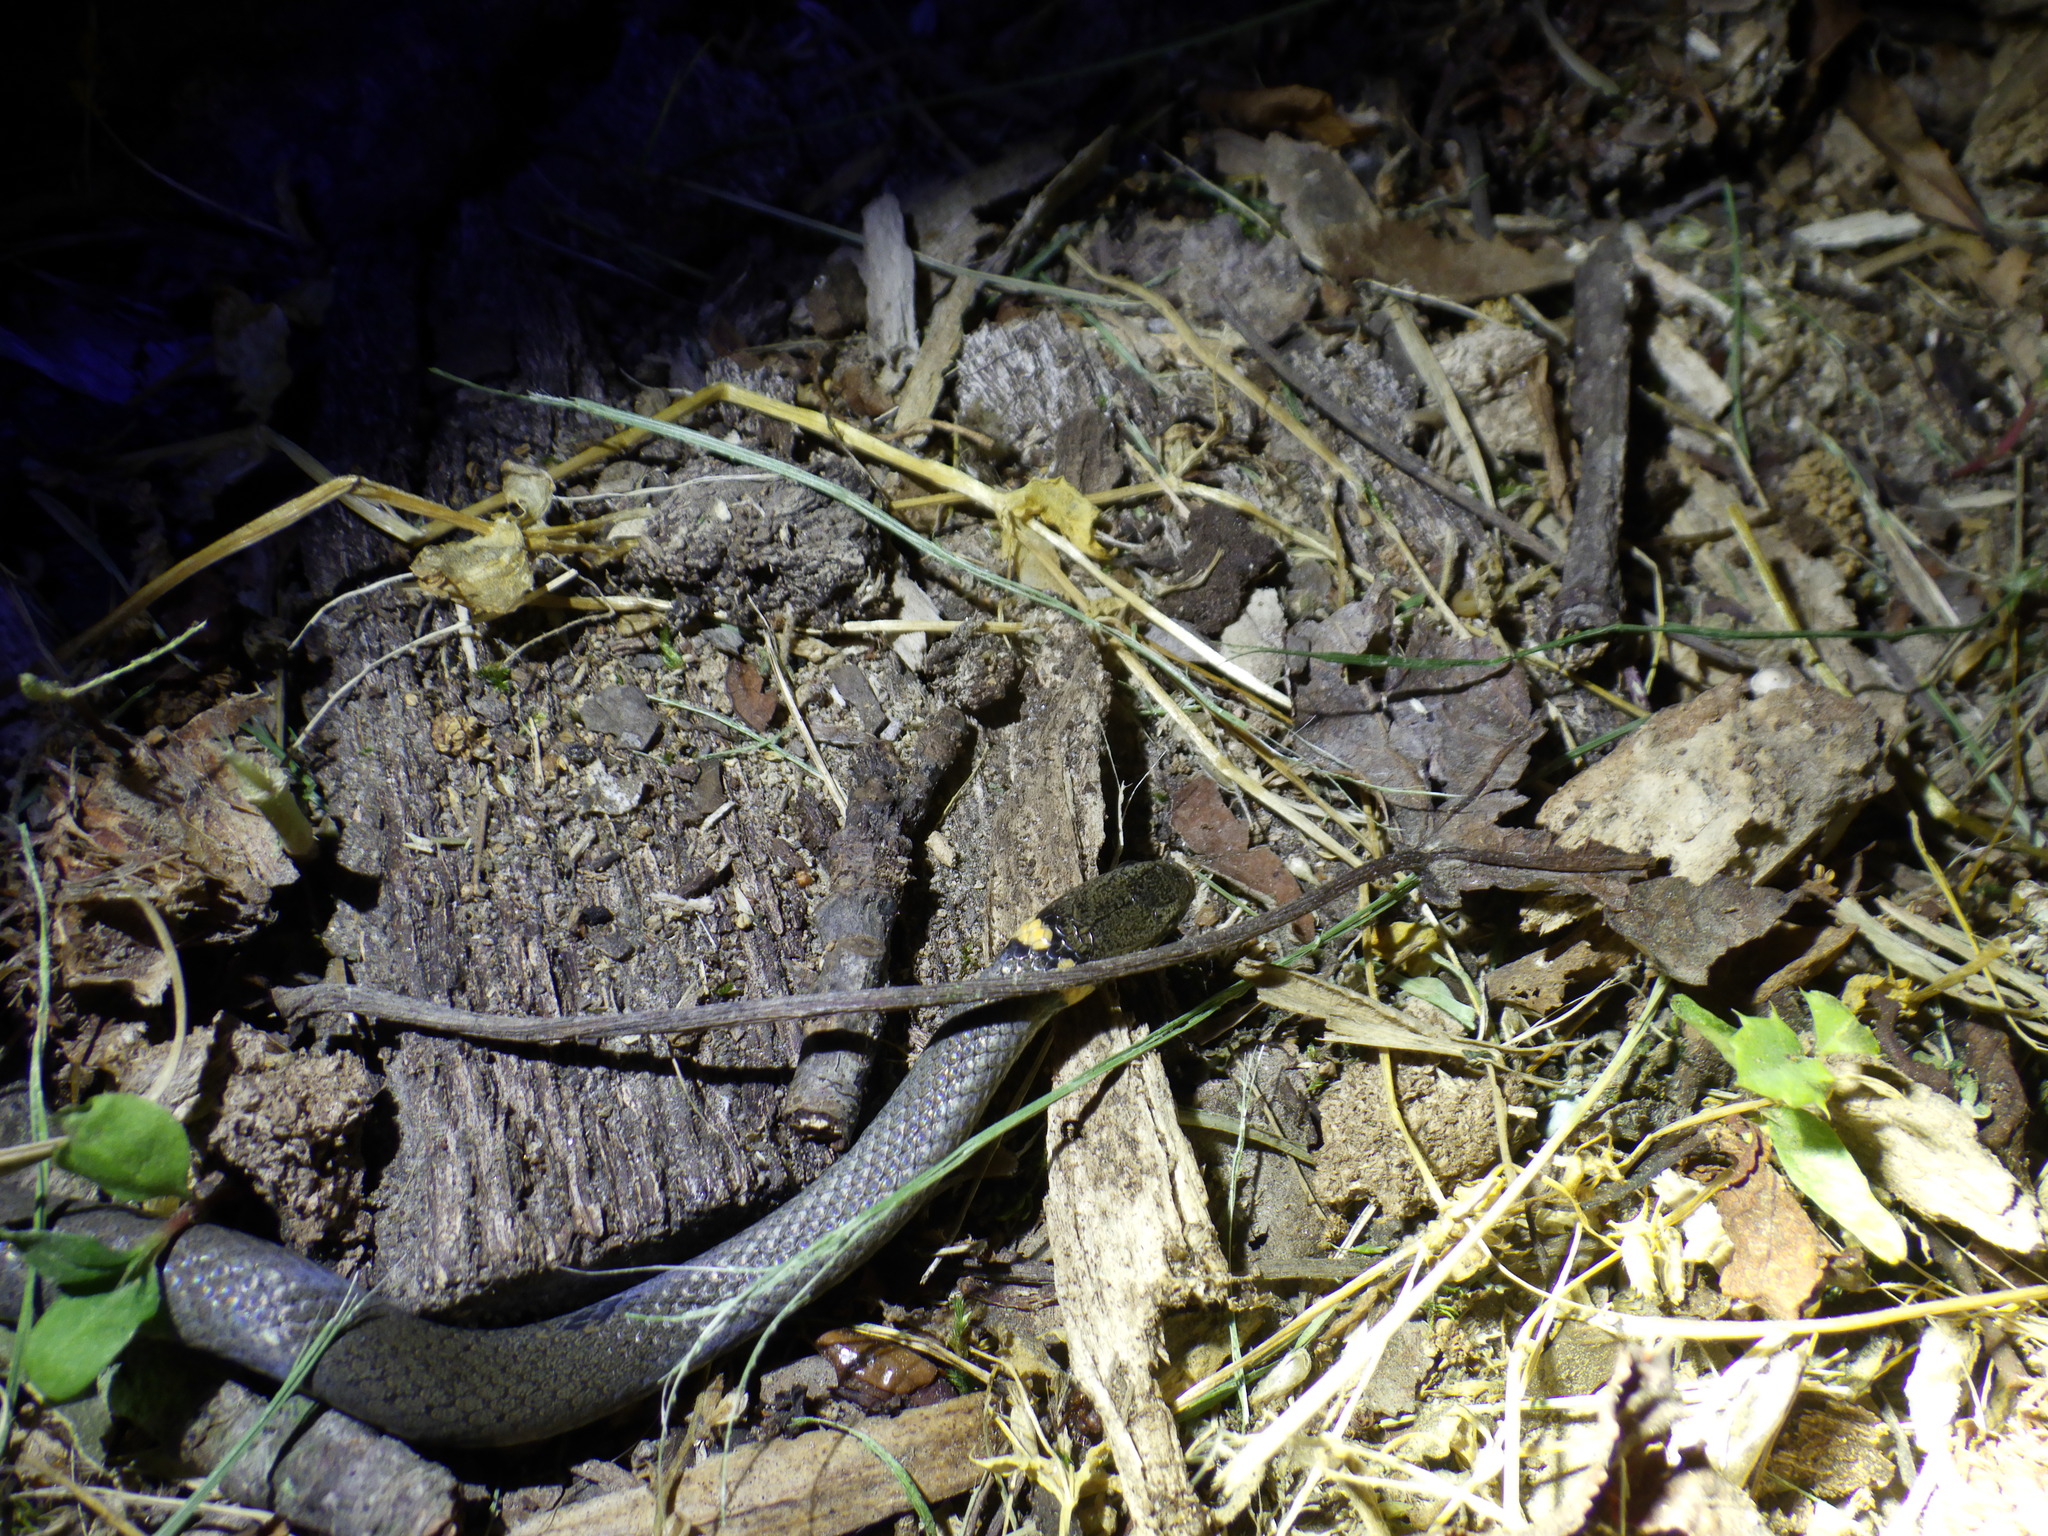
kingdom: Animalia
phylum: Chordata
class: Squamata
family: Colubridae
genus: Diadophis
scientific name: Diadophis punctatus
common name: Ringneck snake
